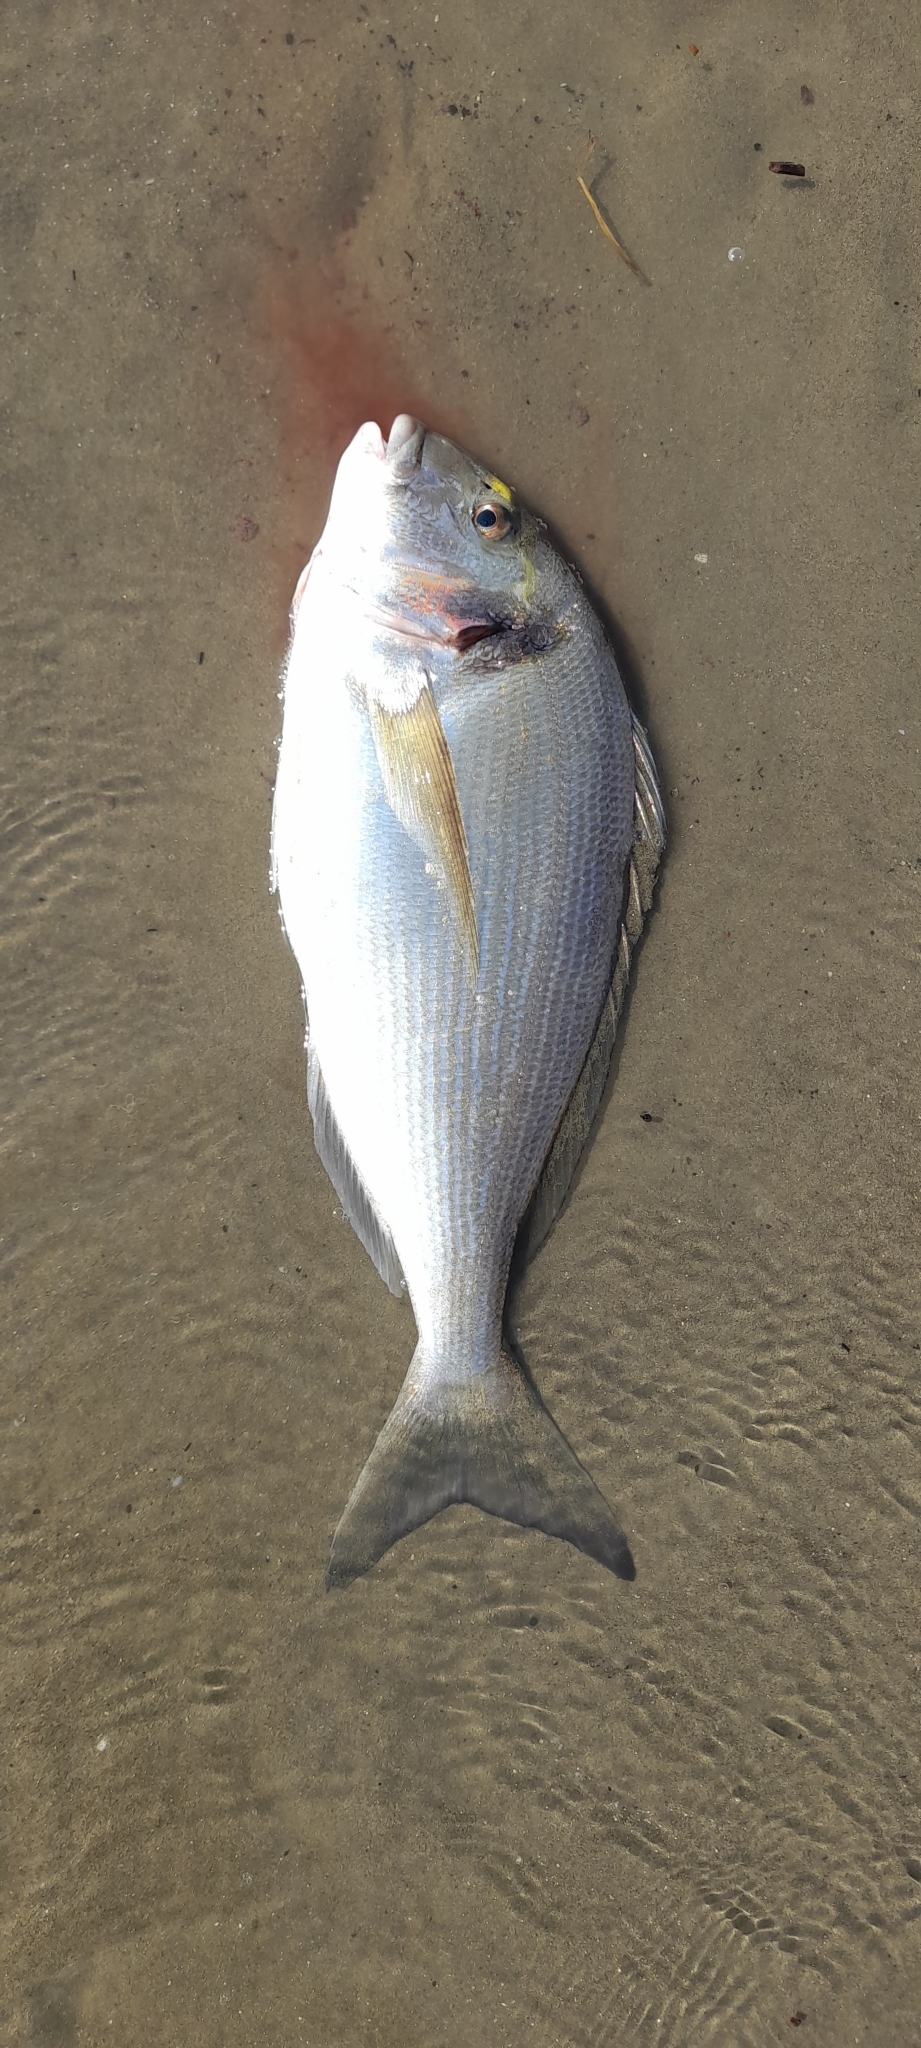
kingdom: Animalia
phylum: Chordata
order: Perciformes
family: Sparidae
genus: Sparus
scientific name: Sparus aurata
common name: Gilthead
